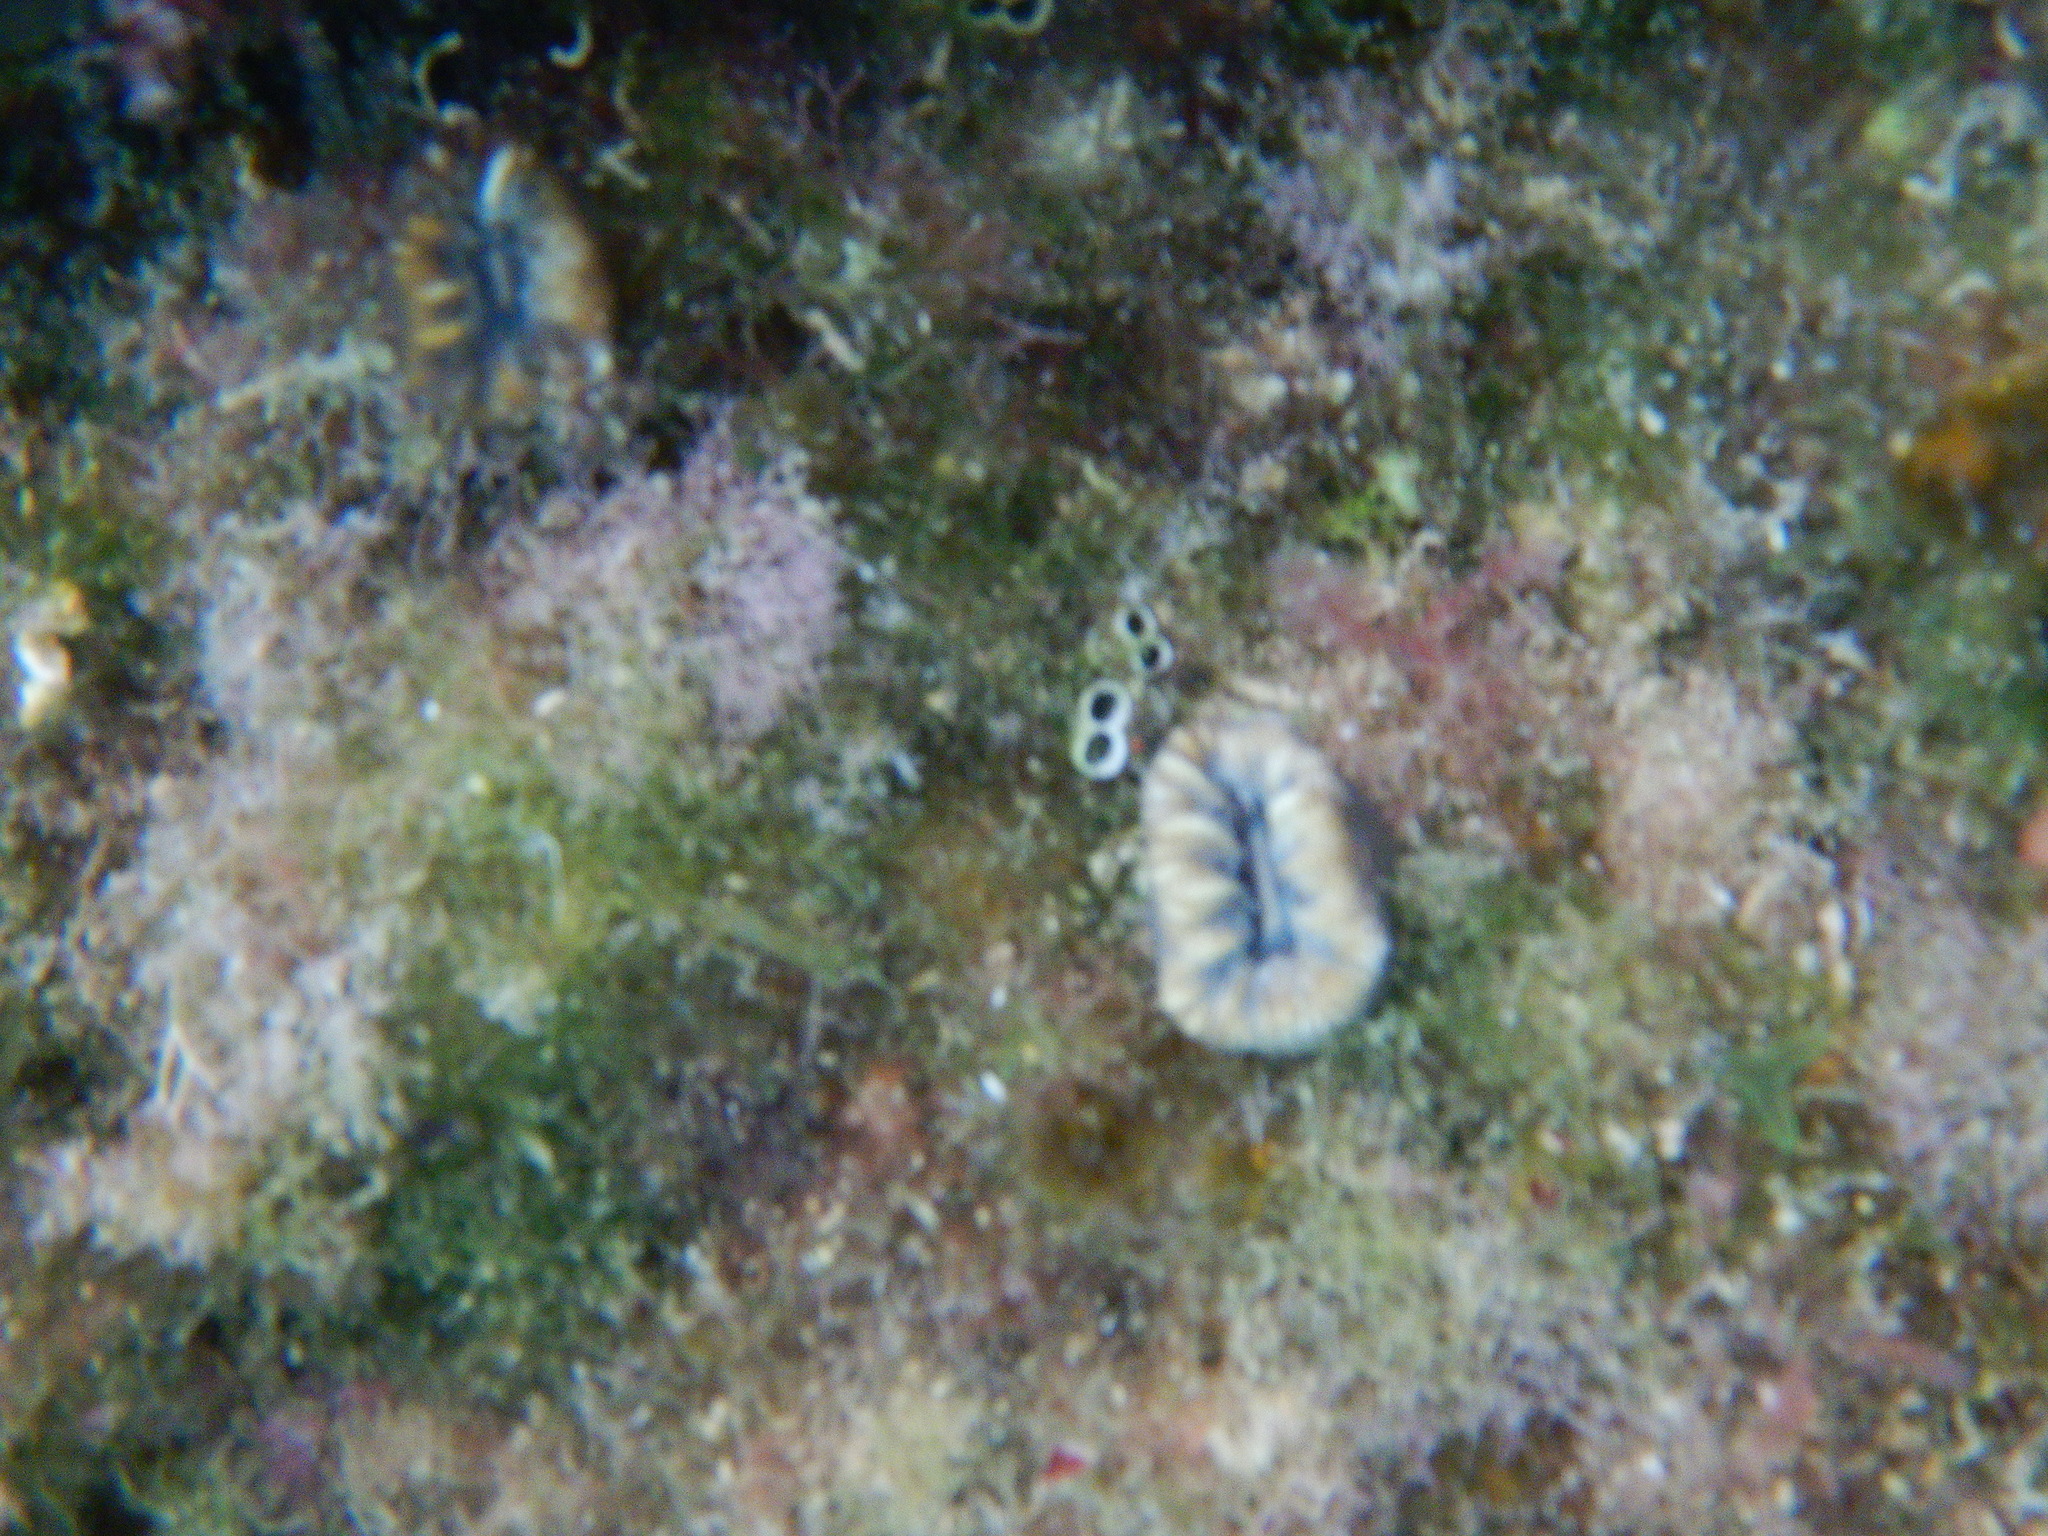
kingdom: Animalia
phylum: Cnidaria
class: Anthozoa
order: Scleractinia
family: Dendrophylliidae
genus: Balanophyllia
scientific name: Balanophyllia europaea
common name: Scarlet coral
